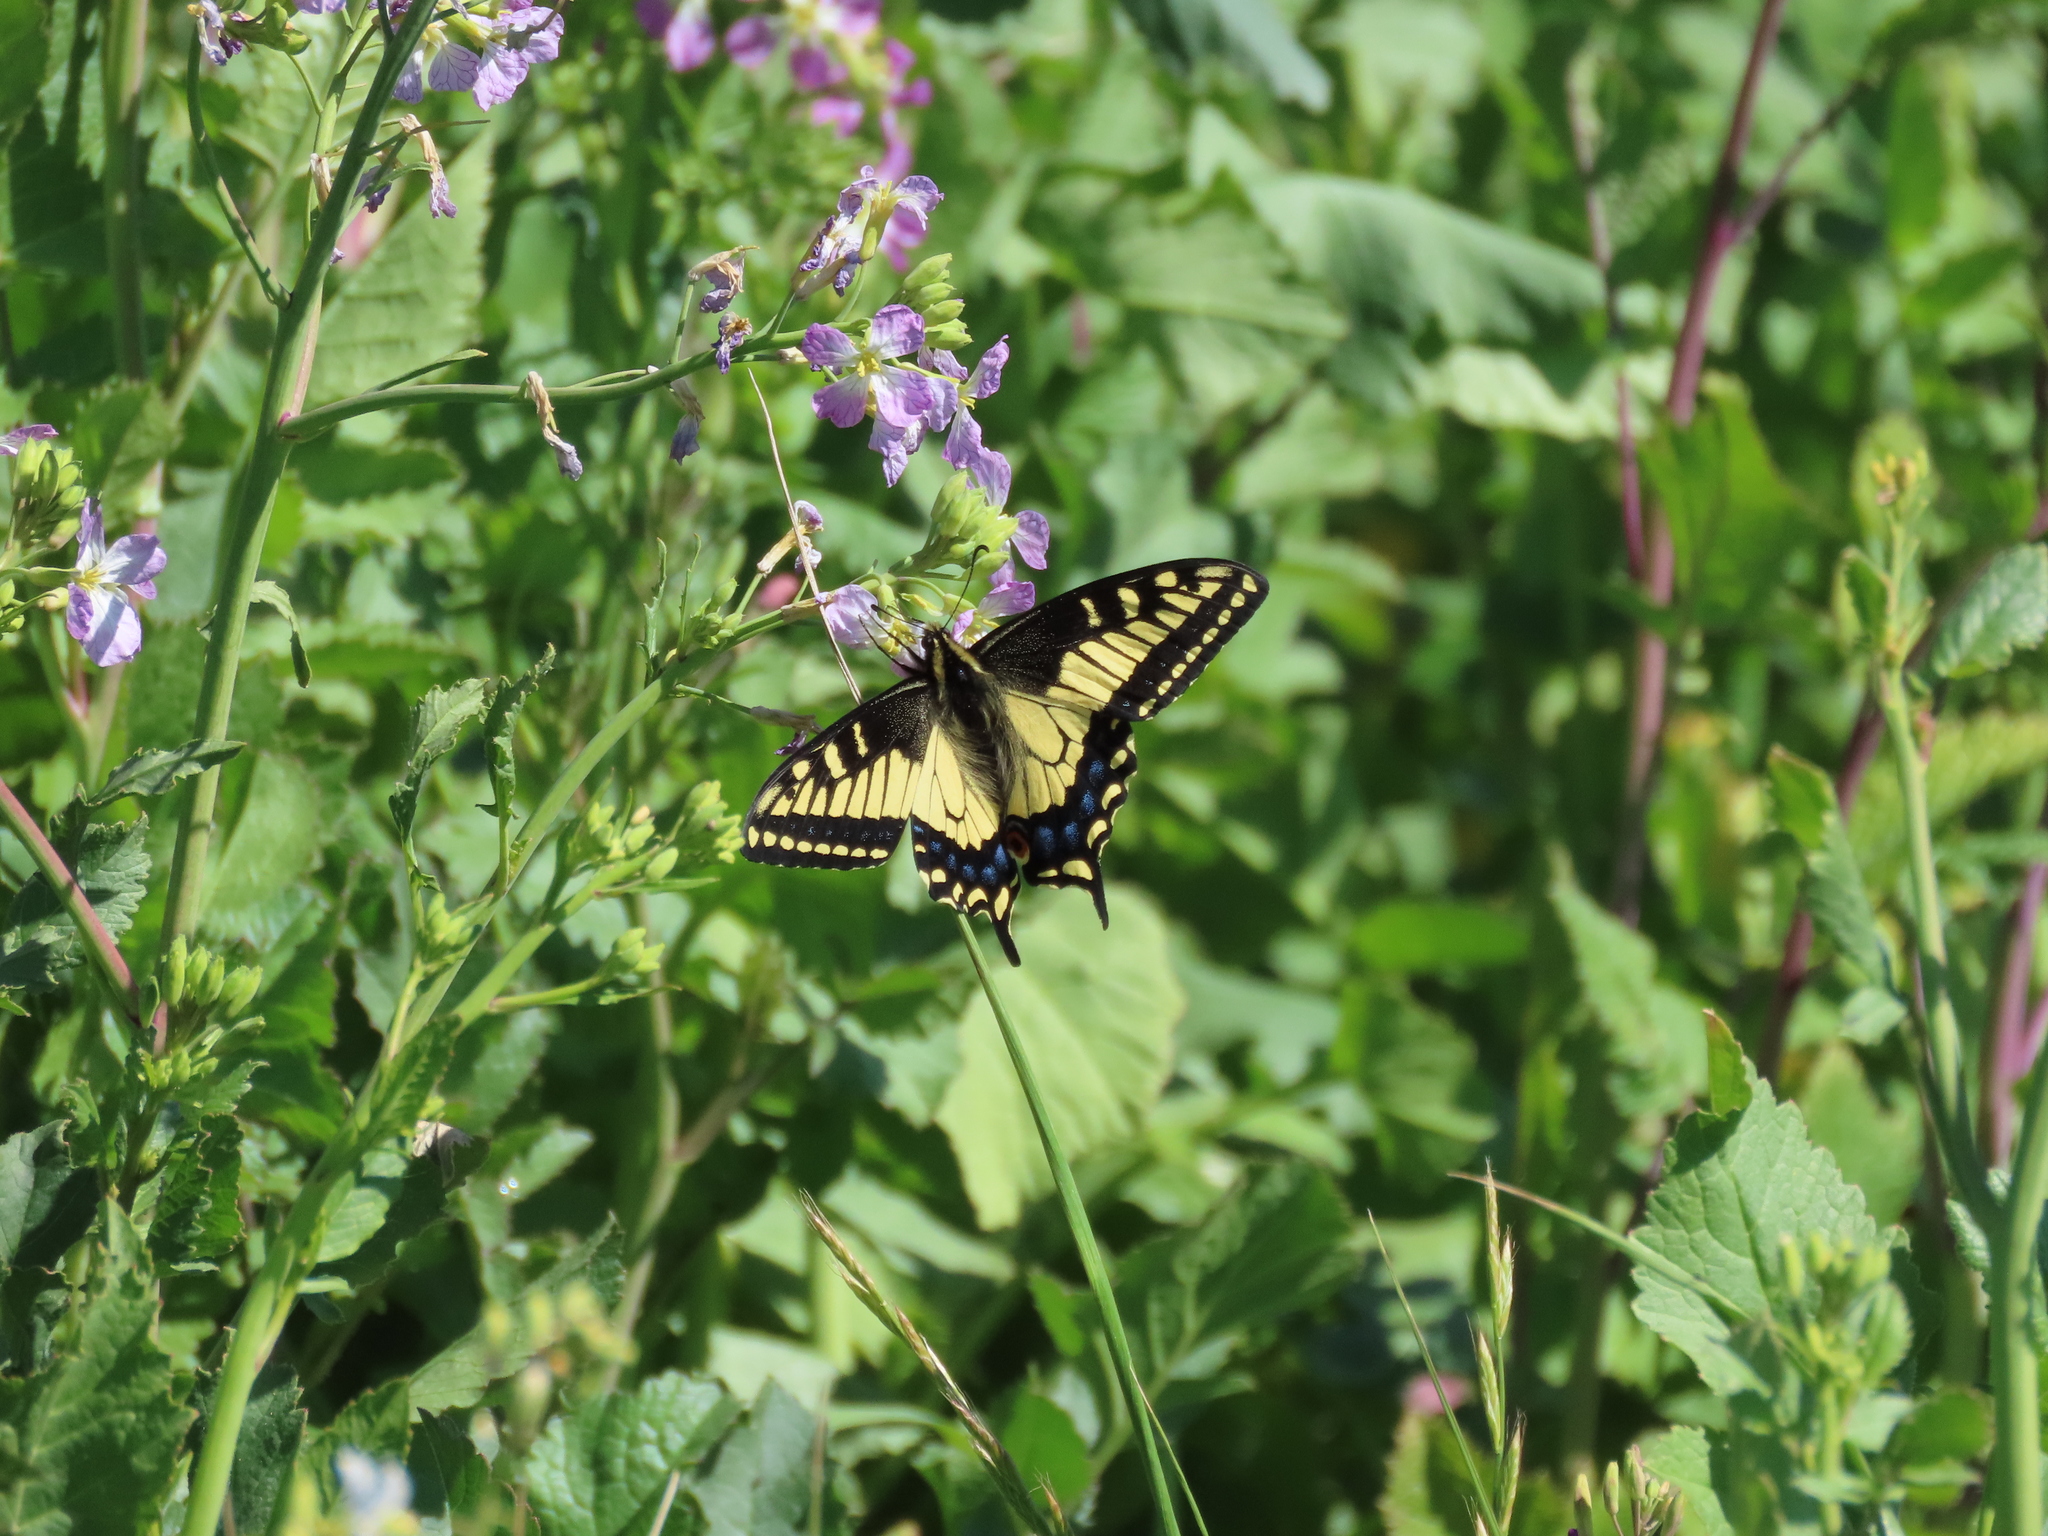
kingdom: Animalia
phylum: Arthropoda
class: Insecta
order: Lepidoptera
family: Papilionidae
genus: Papilio
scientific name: Papilio zelicaon
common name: Anise swallowtail
